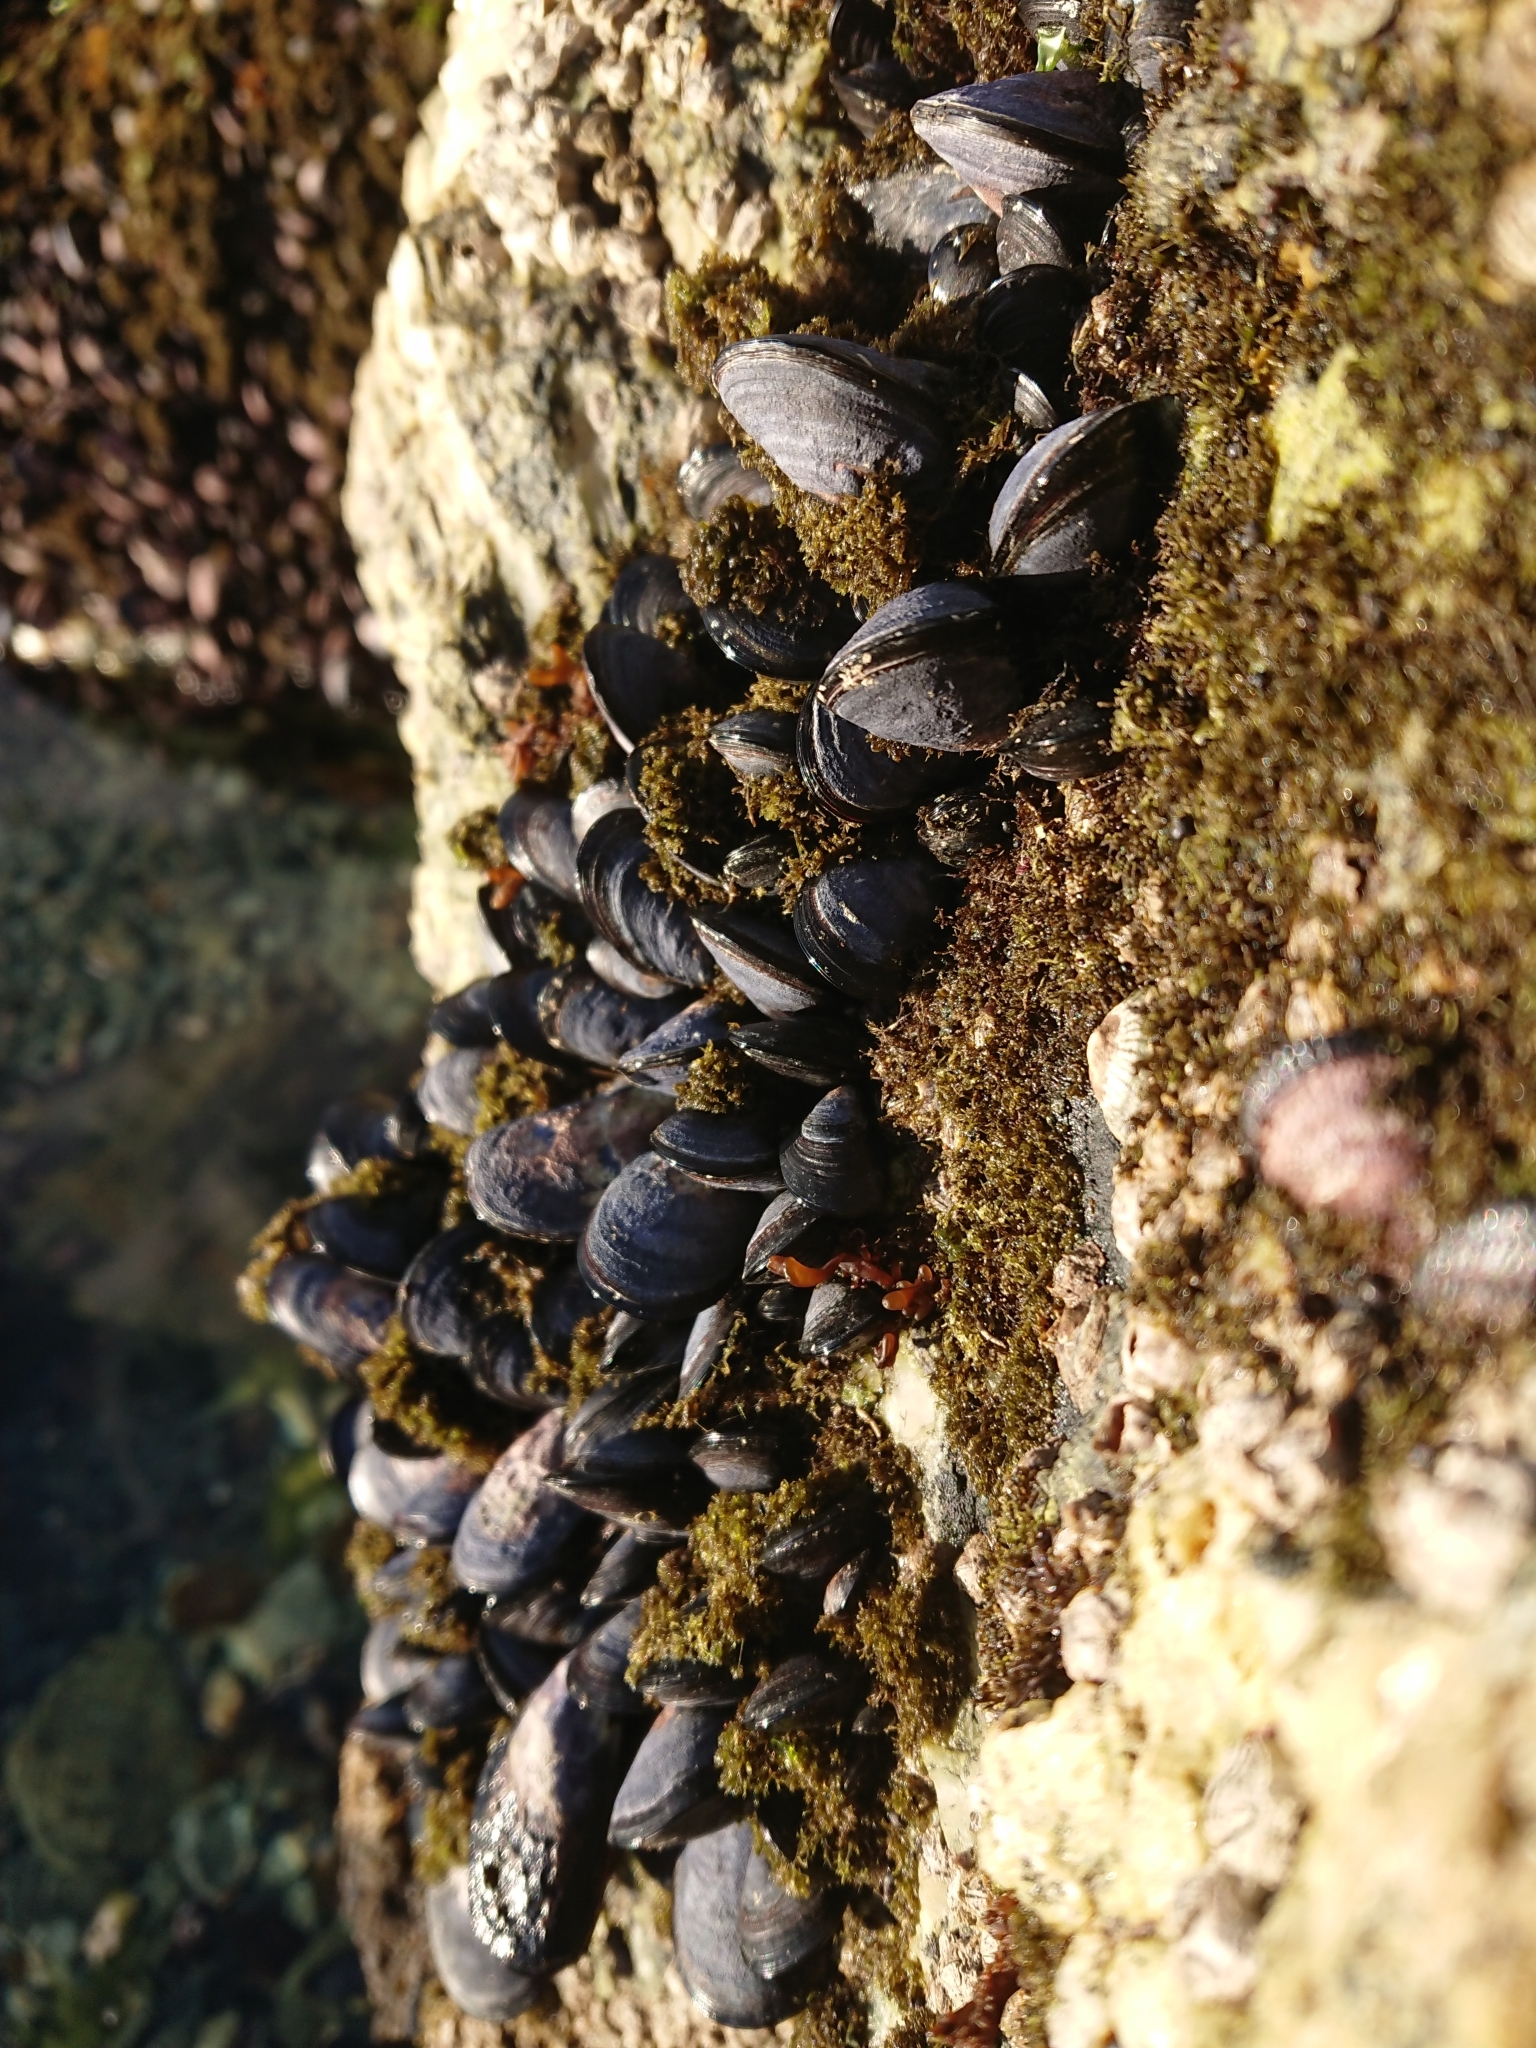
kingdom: Animalia
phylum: Mollusca
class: Bivalvia
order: Mytilida
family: Mytilidae
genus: Mytilus
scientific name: Mytilus chilensis
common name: Chilean mussel
